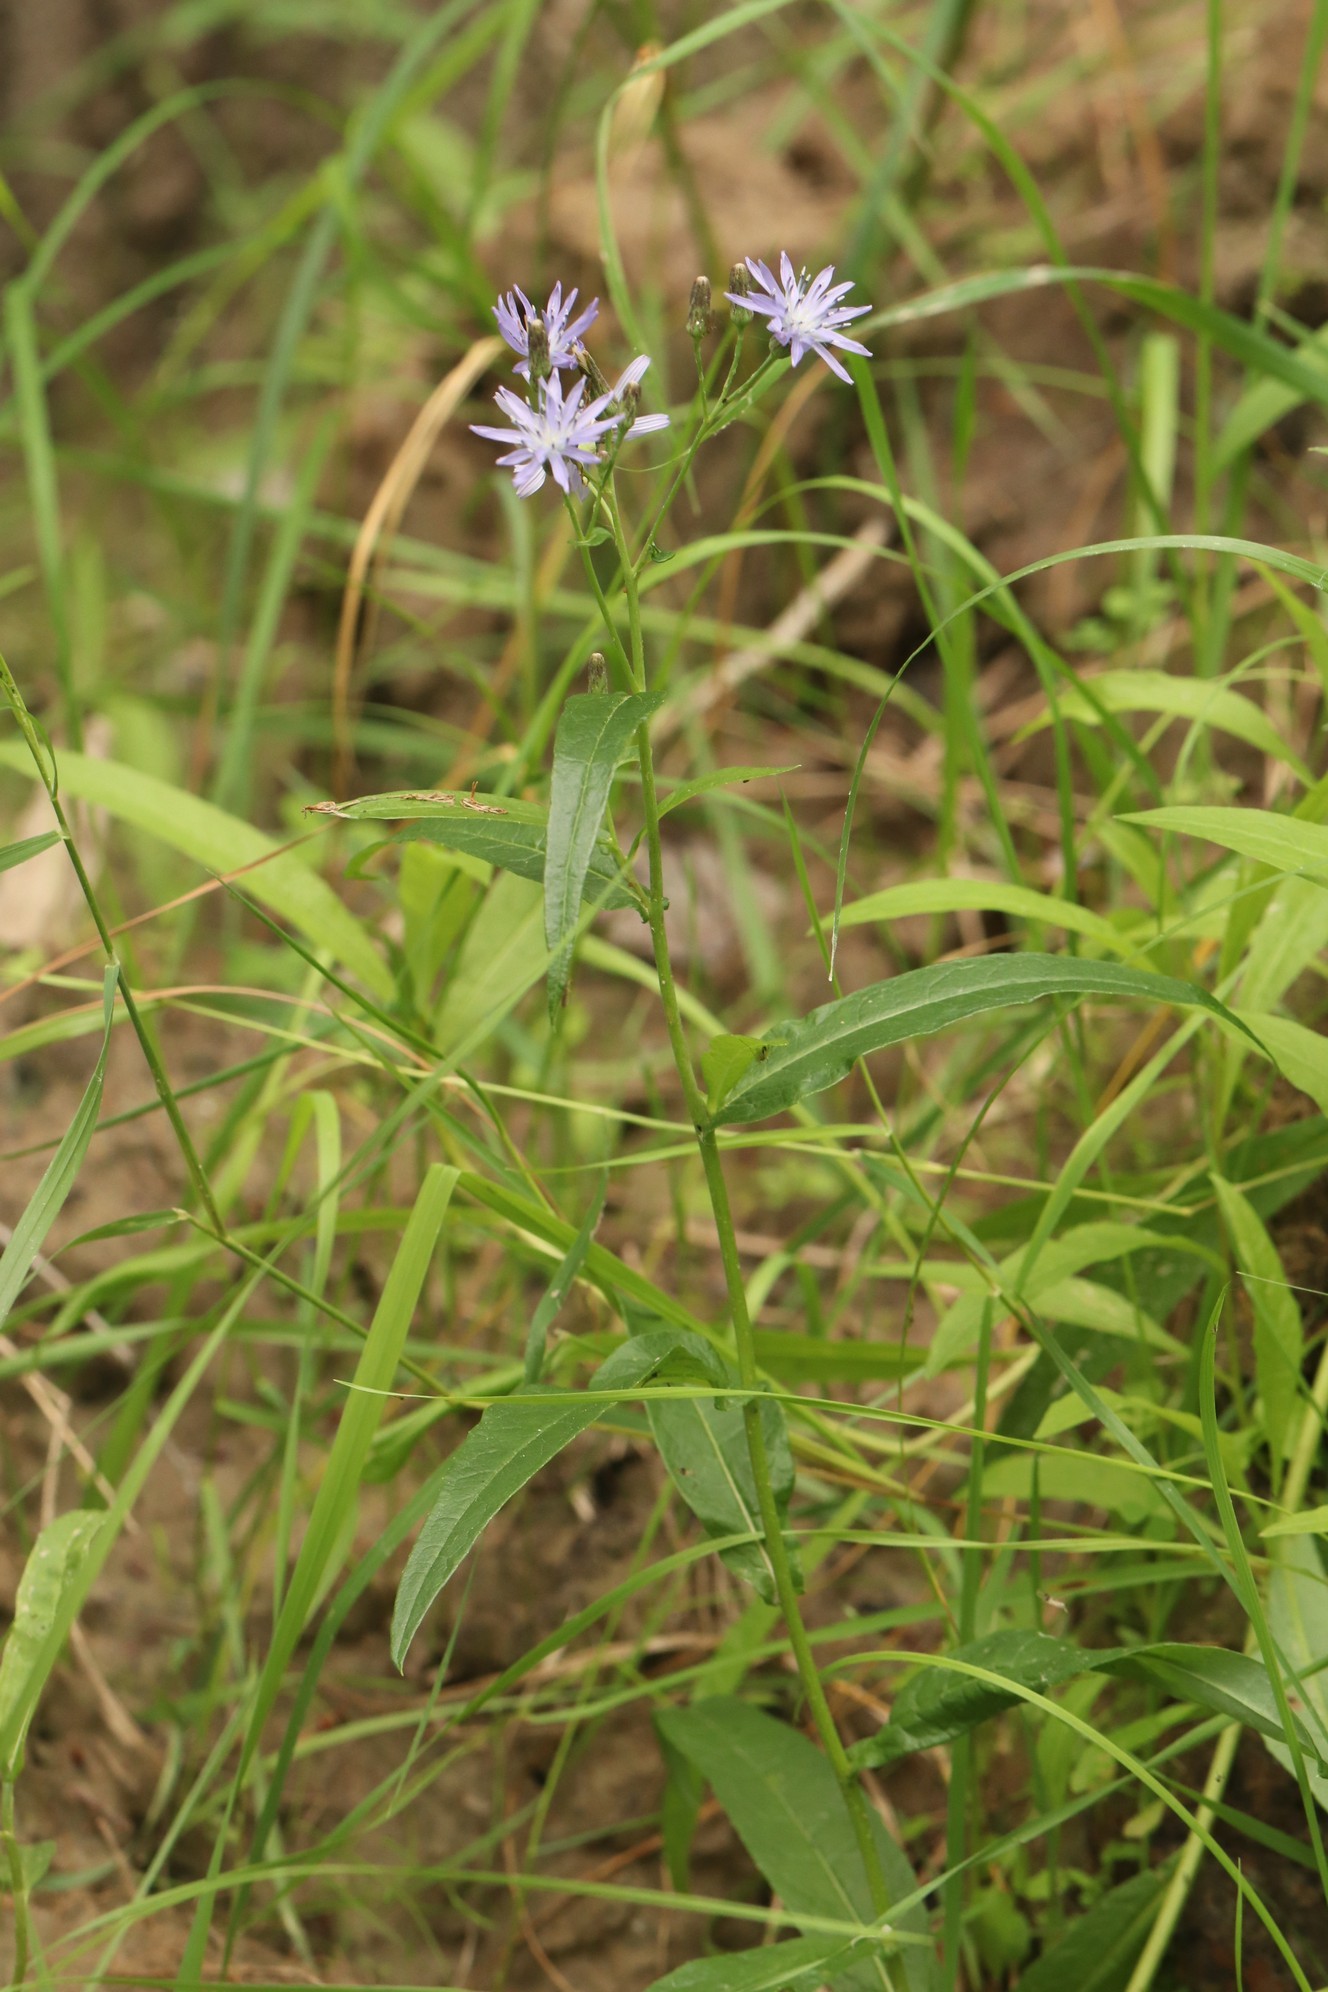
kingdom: Plantae
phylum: Tracheophyta
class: Magnoliopsida
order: Asterales
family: Asteraceae
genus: Lactuca
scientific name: Lactuca tatarica
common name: Blue lettuce
